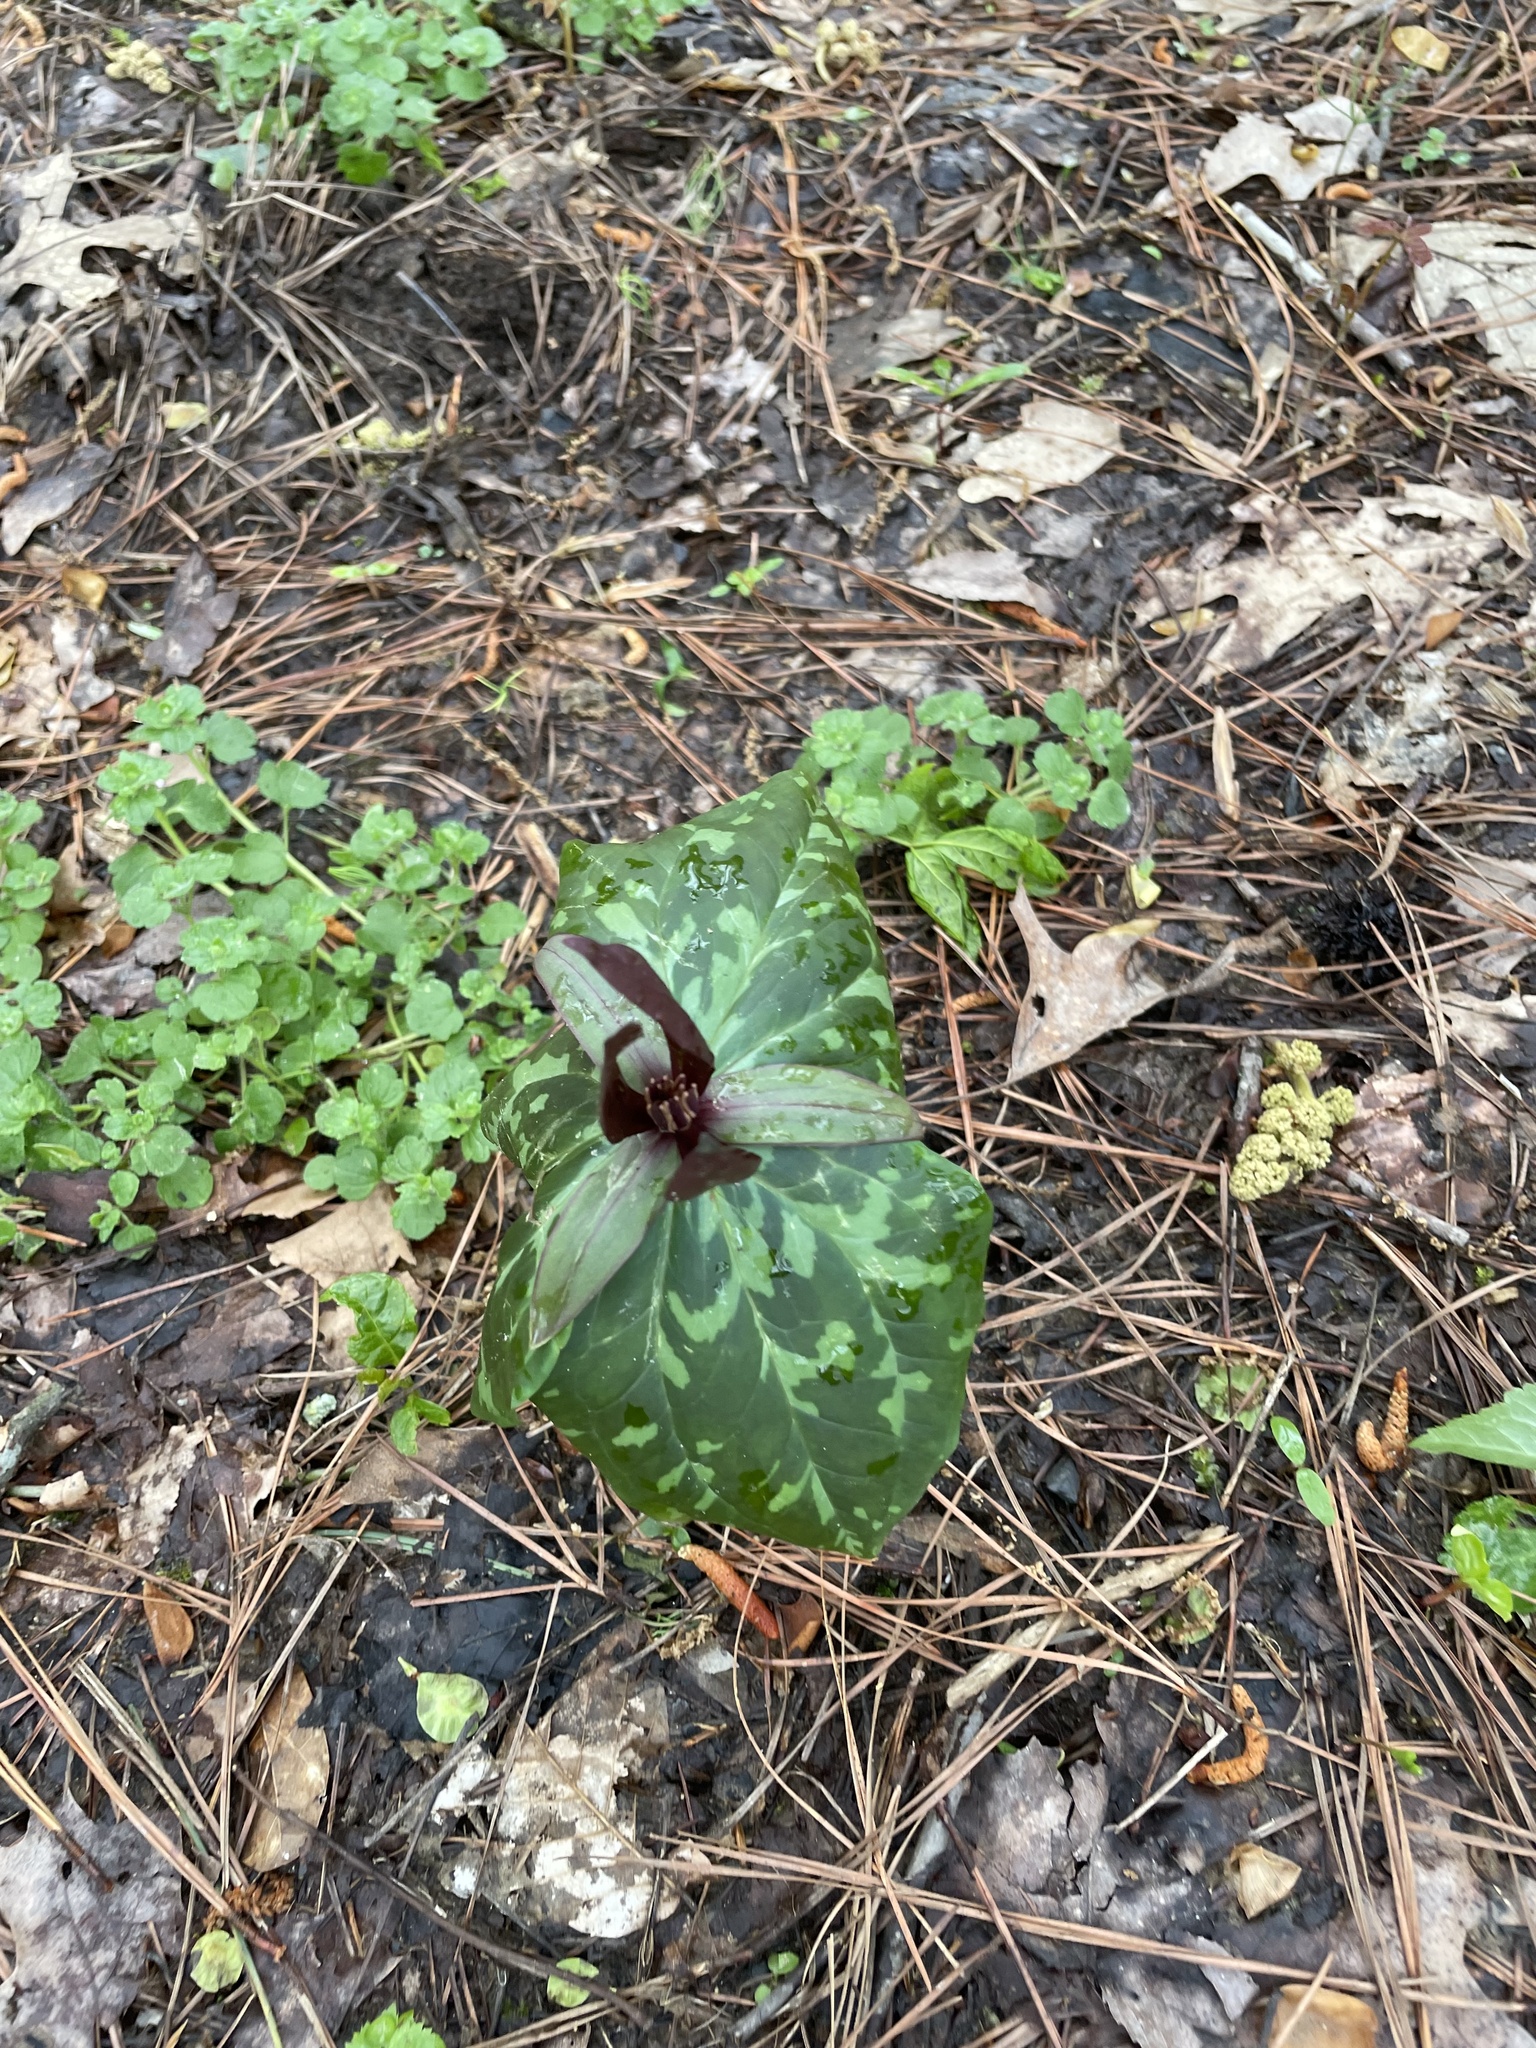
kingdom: Plantae
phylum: Tracheophyta
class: Liliopsida
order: Liliales
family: Melanthiaceae
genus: Trillium
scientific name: Trillium cuneatum
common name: Cuneate trillium
